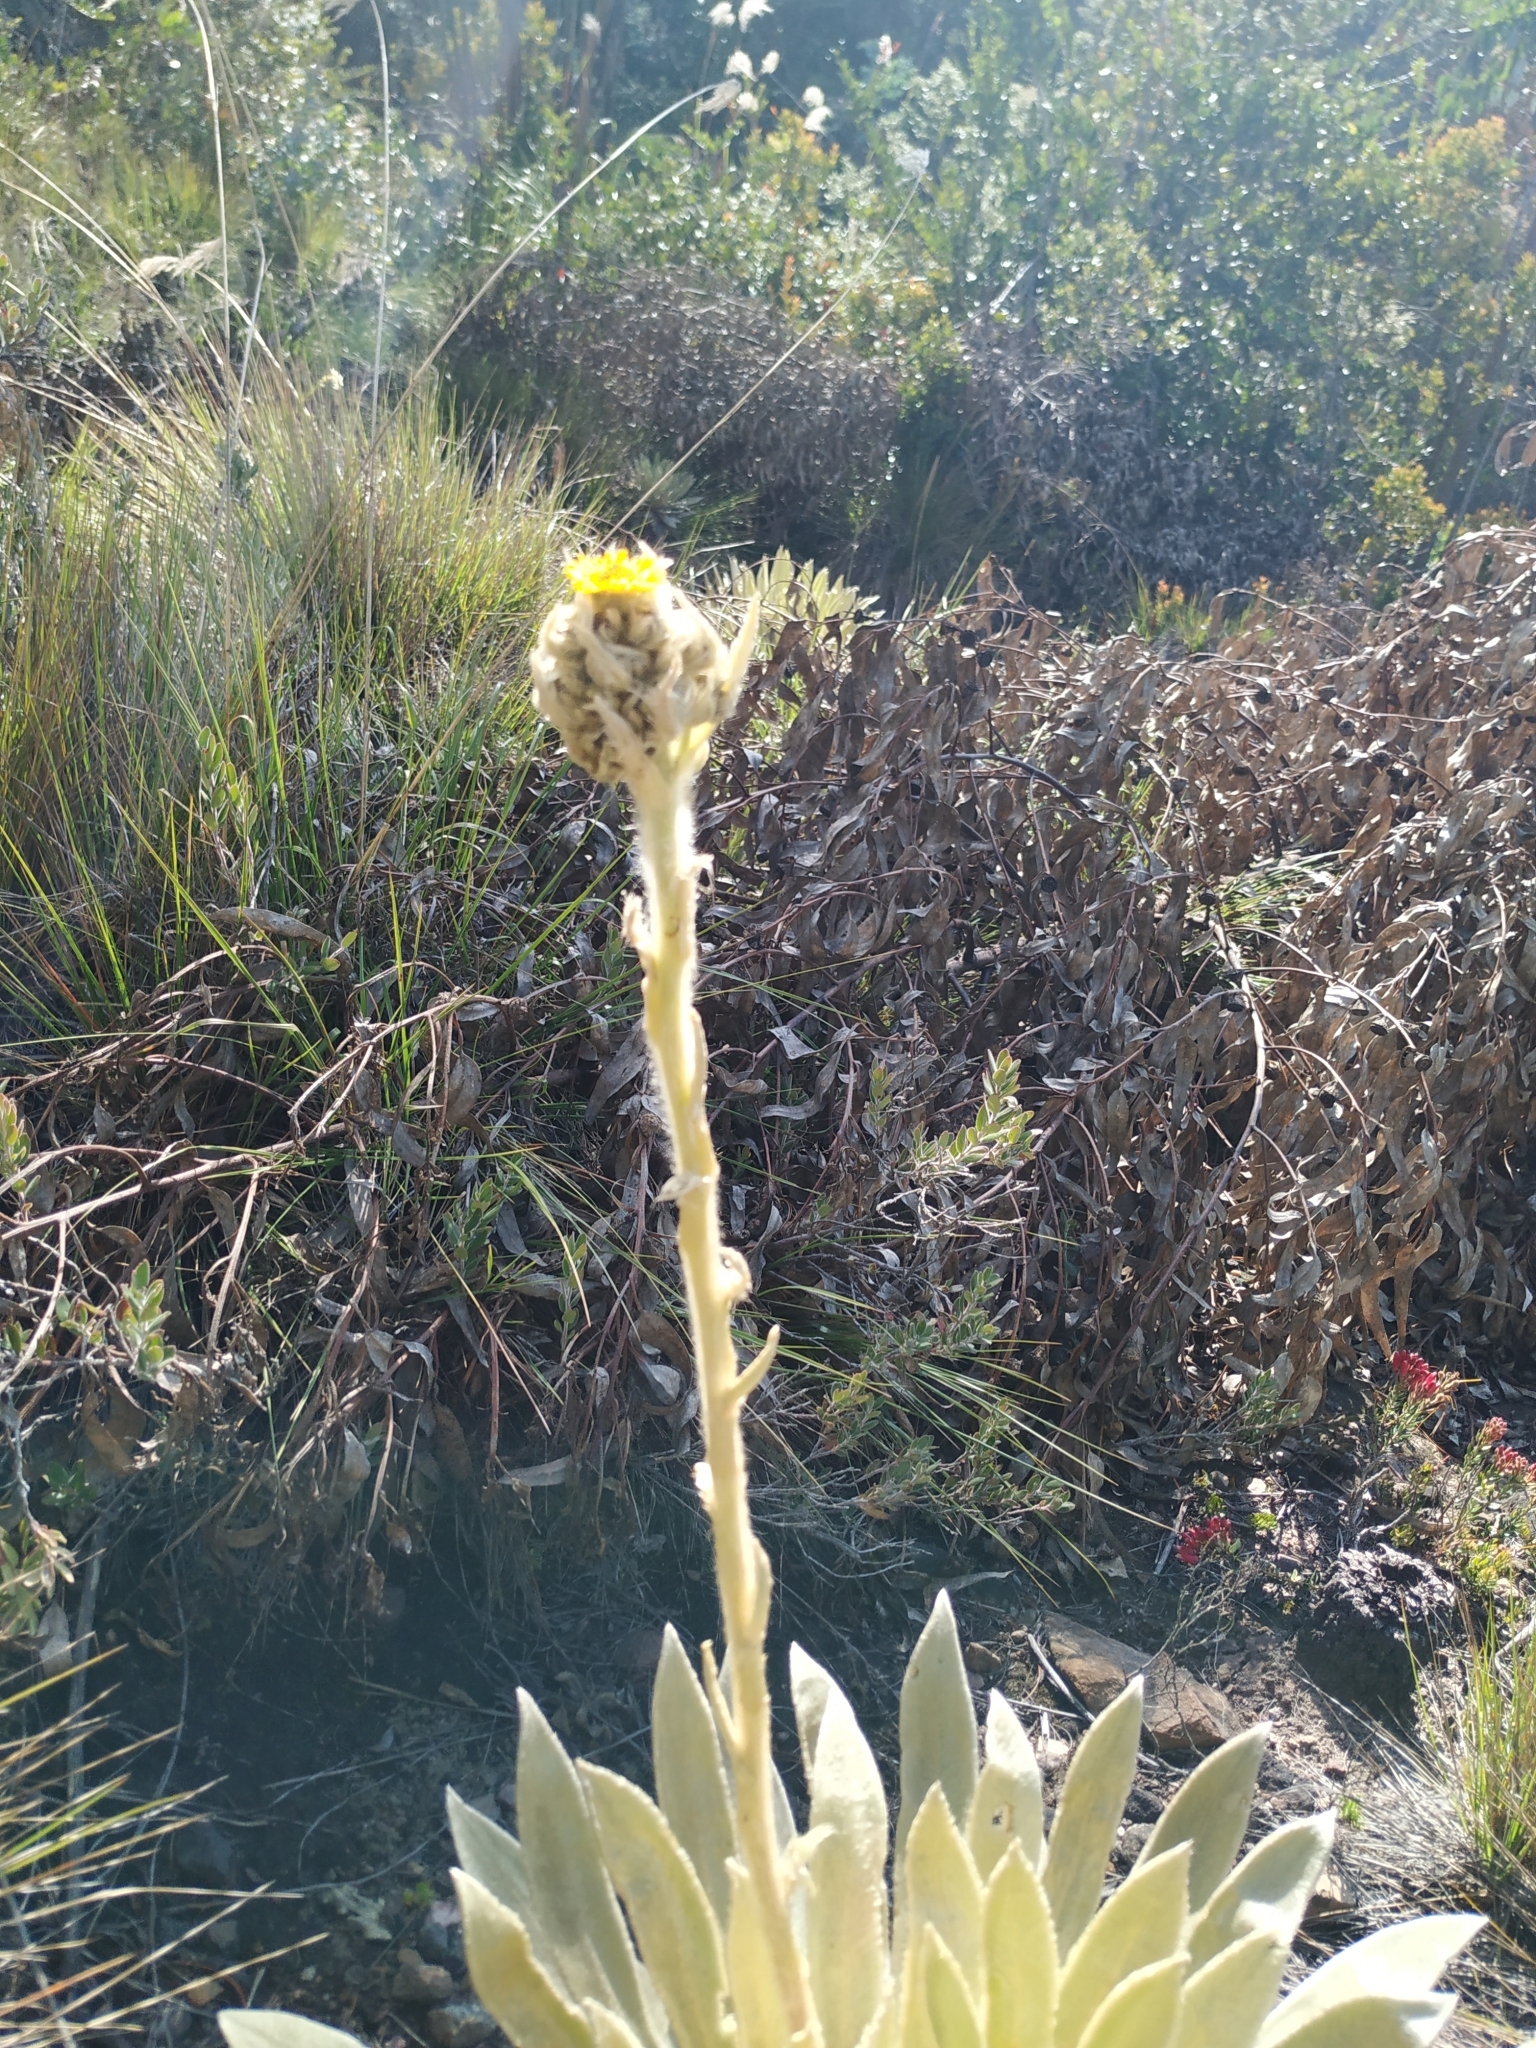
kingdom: Plantae
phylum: Tracheophyta
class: Magnoliopsida
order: Asterales
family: Asteraceae
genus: Espeletia
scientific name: Espeletia muiska
